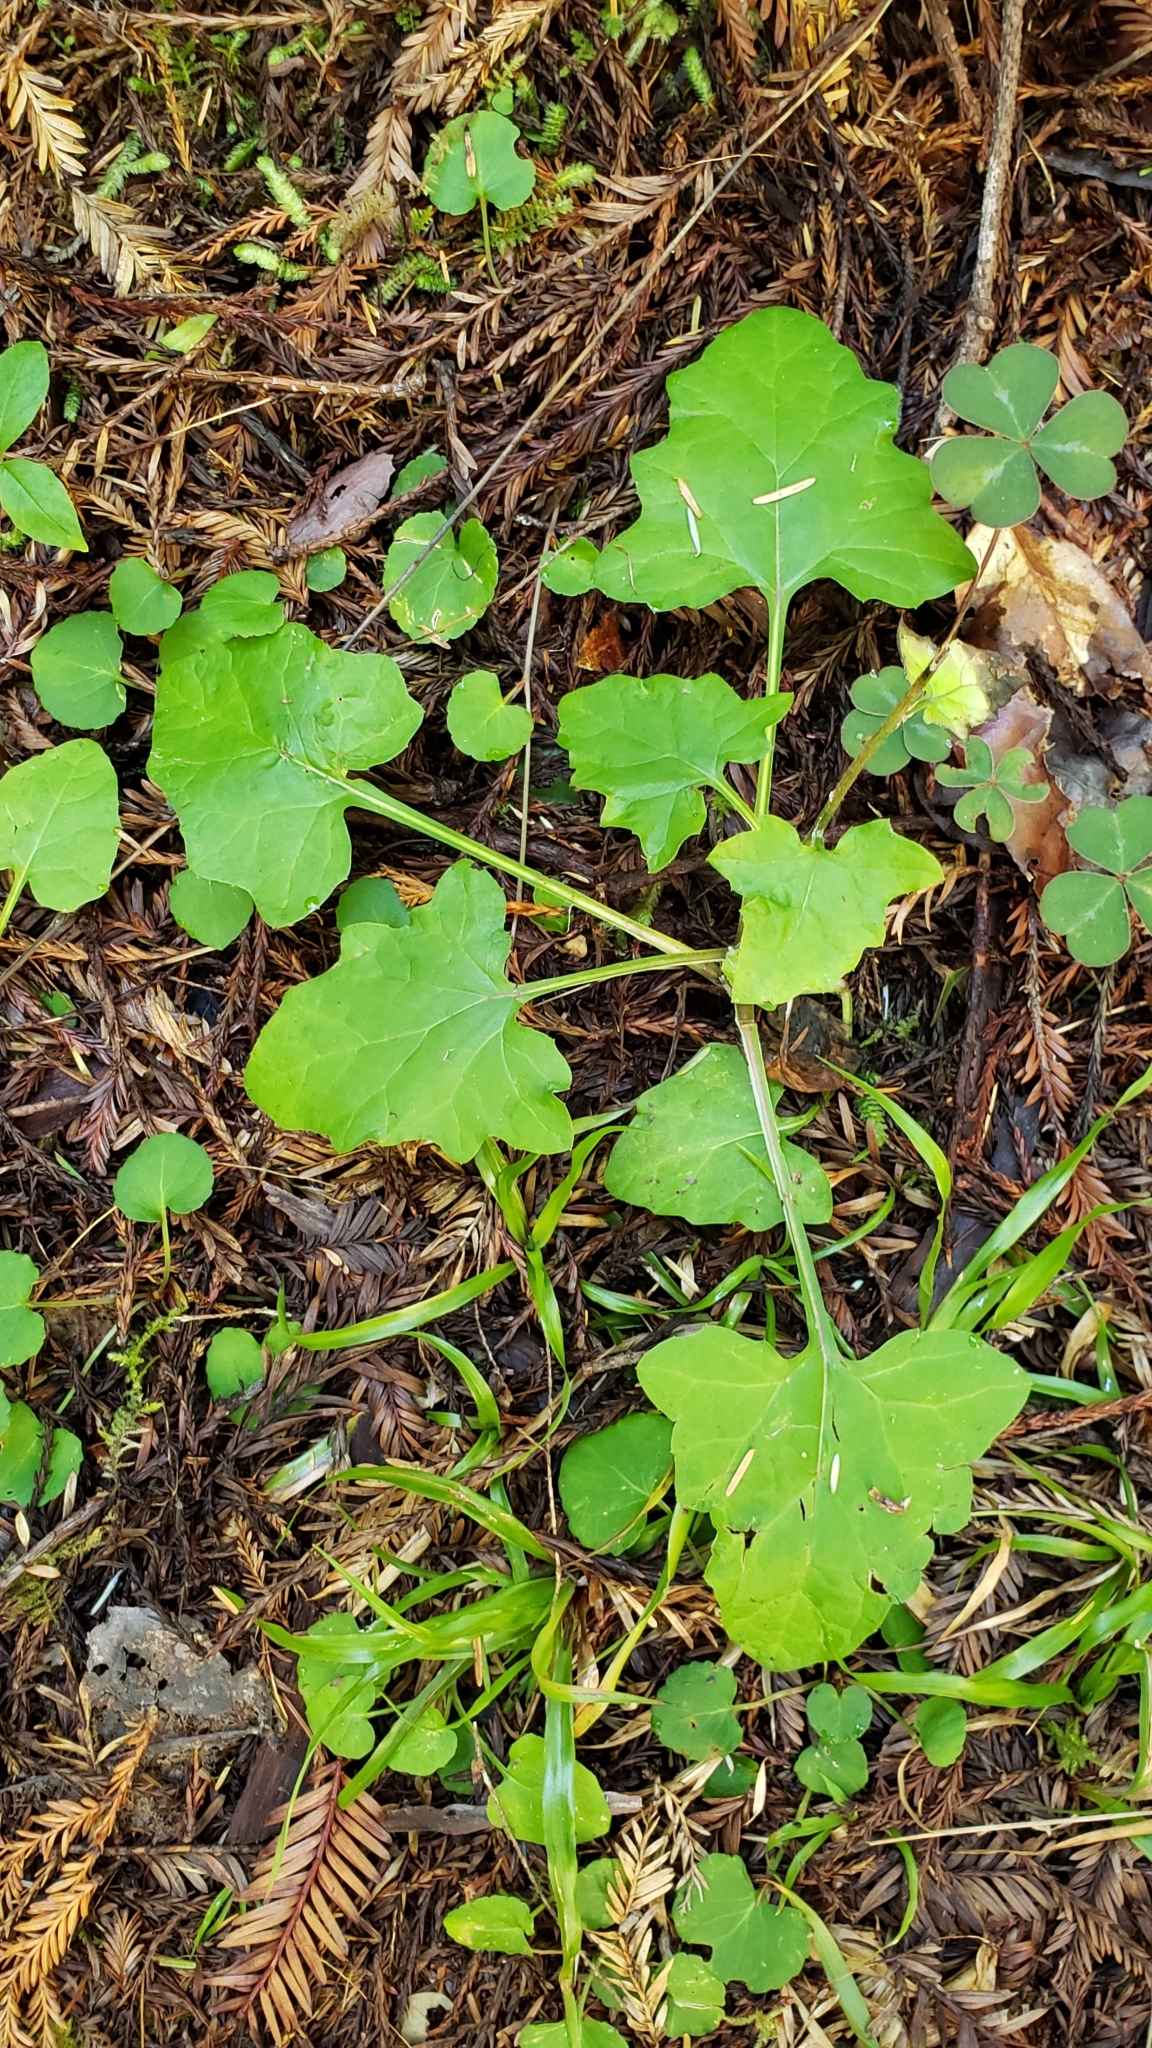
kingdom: Plantae
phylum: Tracheophyta
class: Magnoliopsida
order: Asterales
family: Asteraceae
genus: Adenocaulon
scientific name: Adenocaulon bicolor
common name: Trailplant
